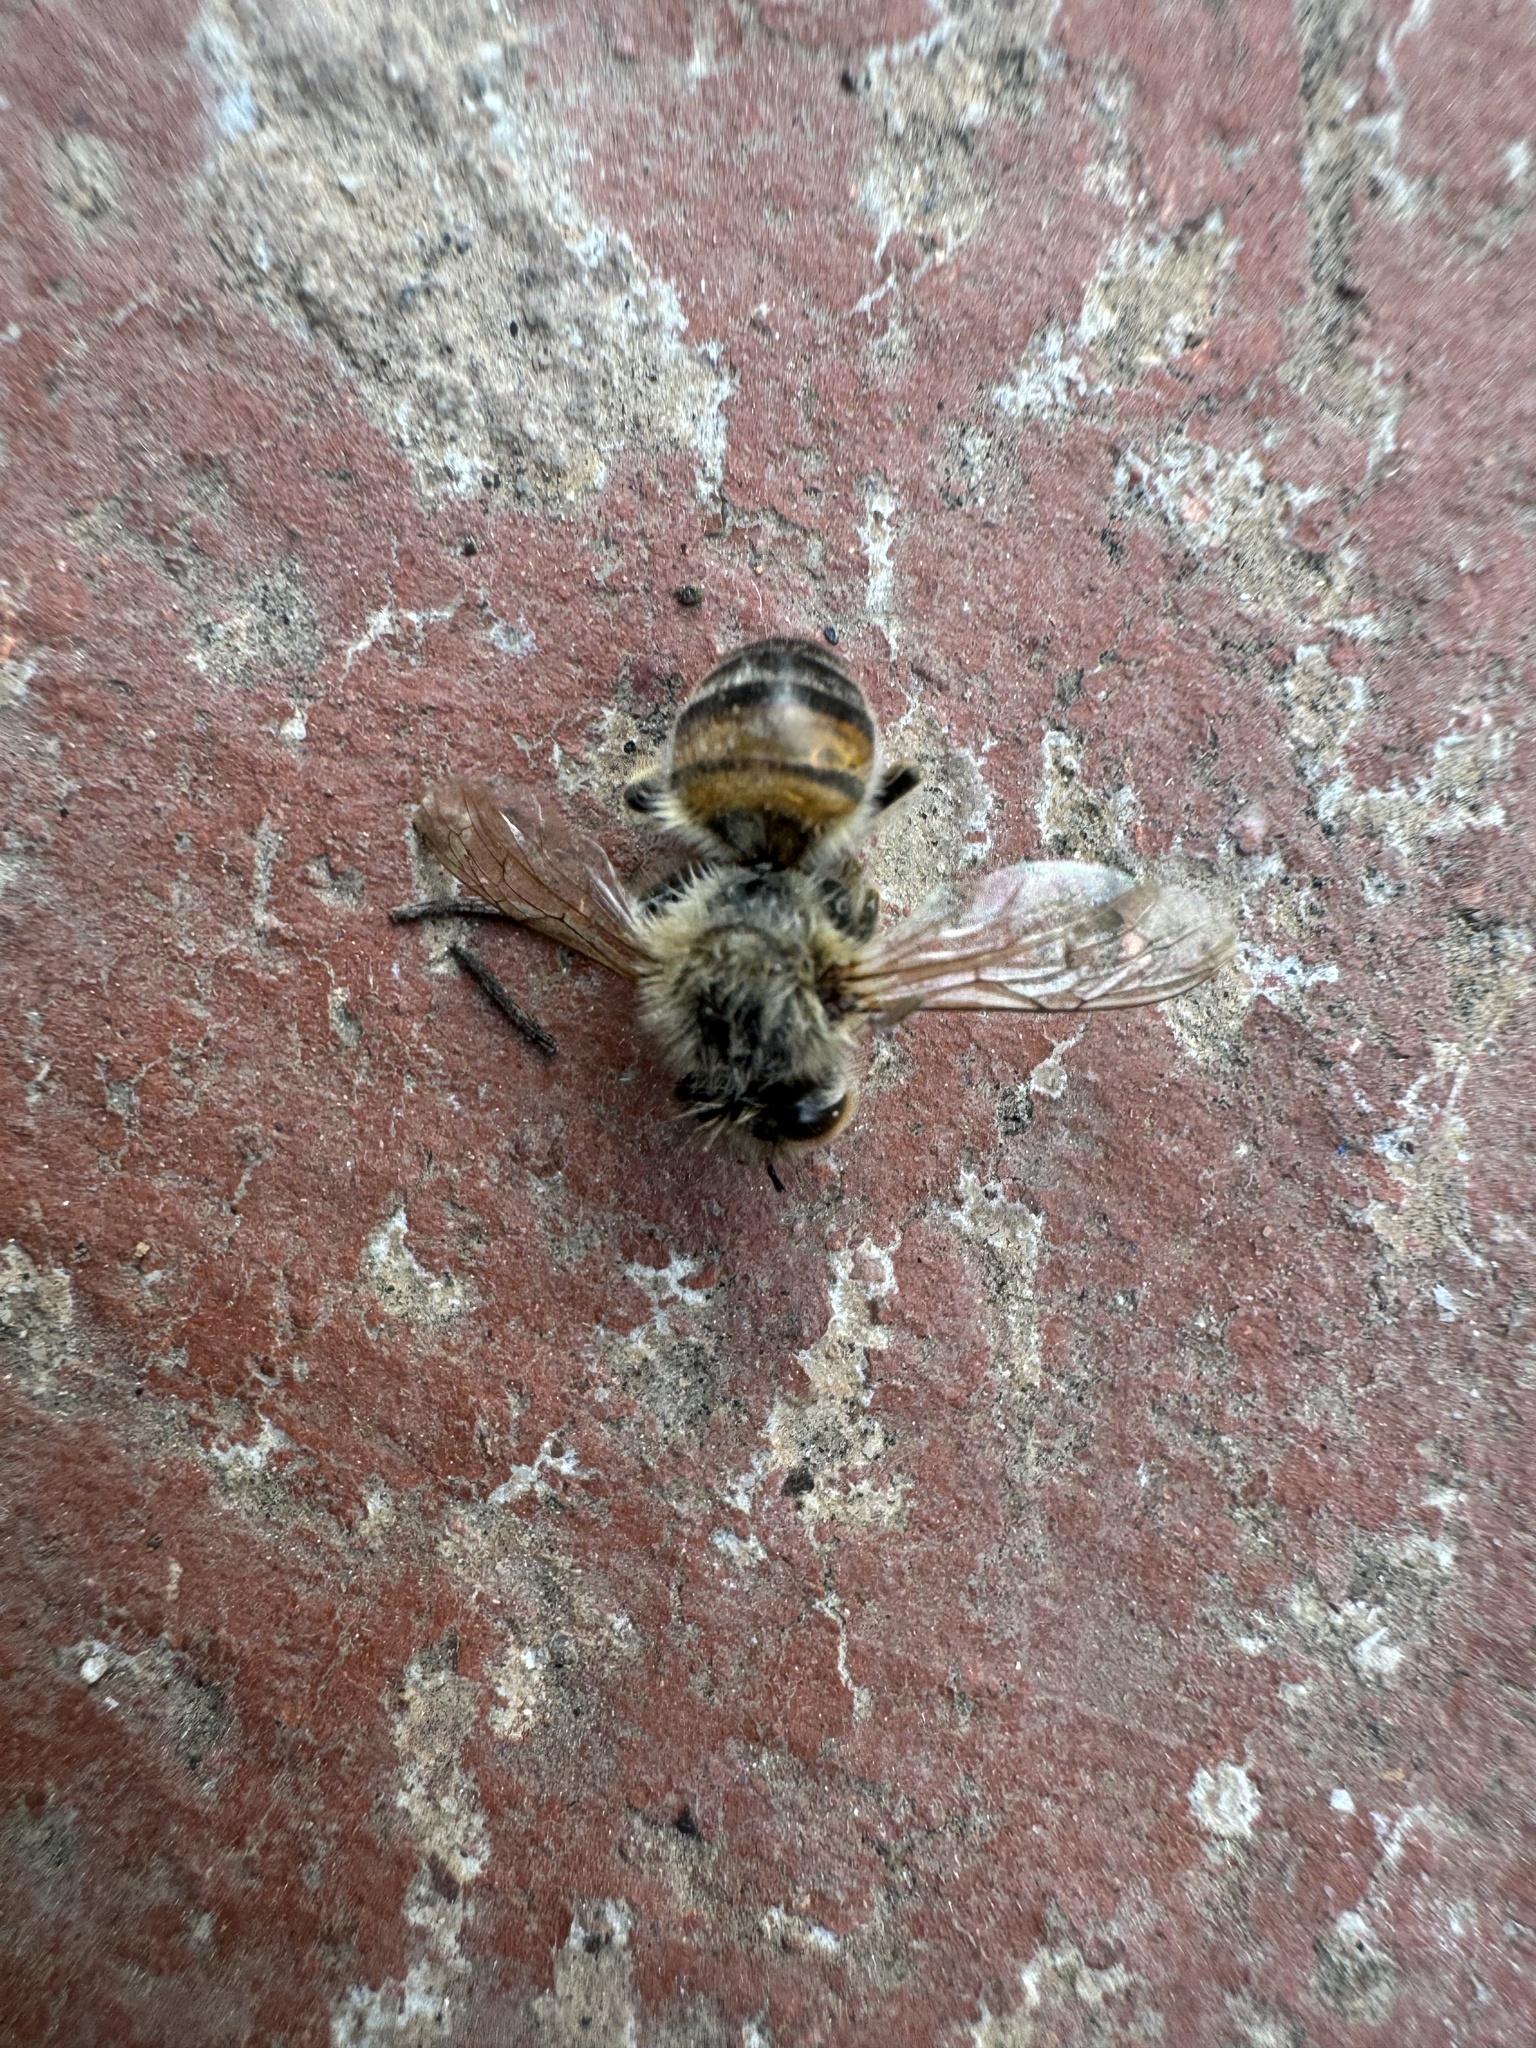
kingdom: Animalia
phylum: Arthropoda
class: Insecta
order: Hymenoptera
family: Apidae
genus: Apis
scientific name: Apis mellifera
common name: Honey bee
